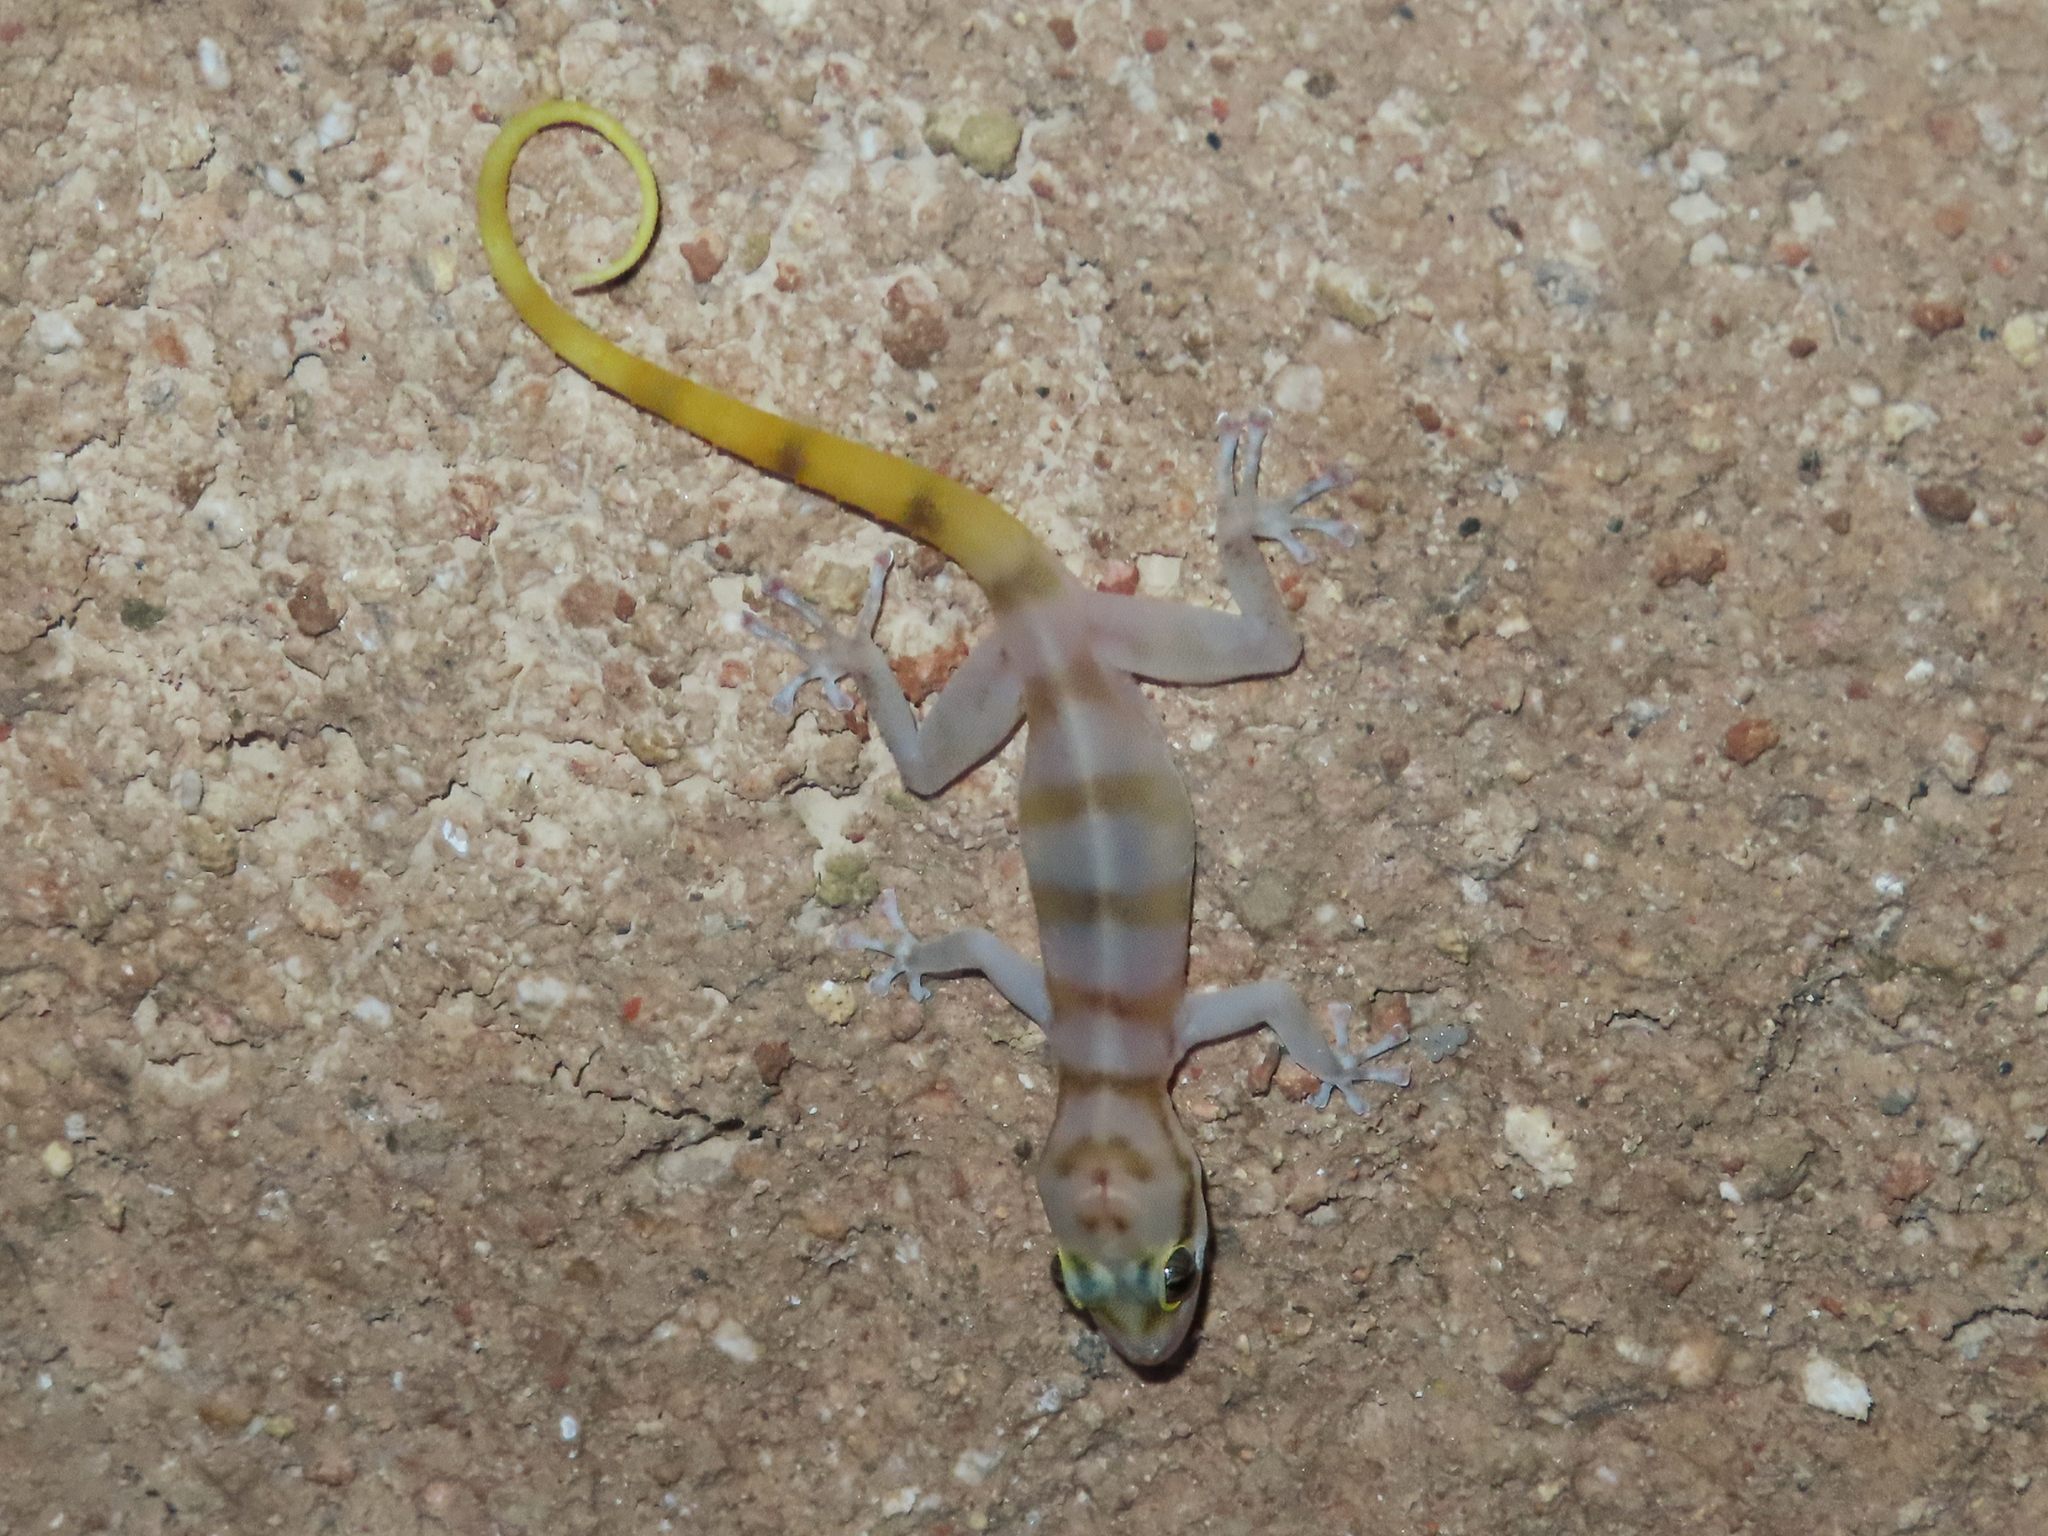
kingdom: Animalia
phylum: Chordata
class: Squamata
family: Phyllodactylidae
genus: Asaccus
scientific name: Asaccus gallagheri
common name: Gallagher's gecko
